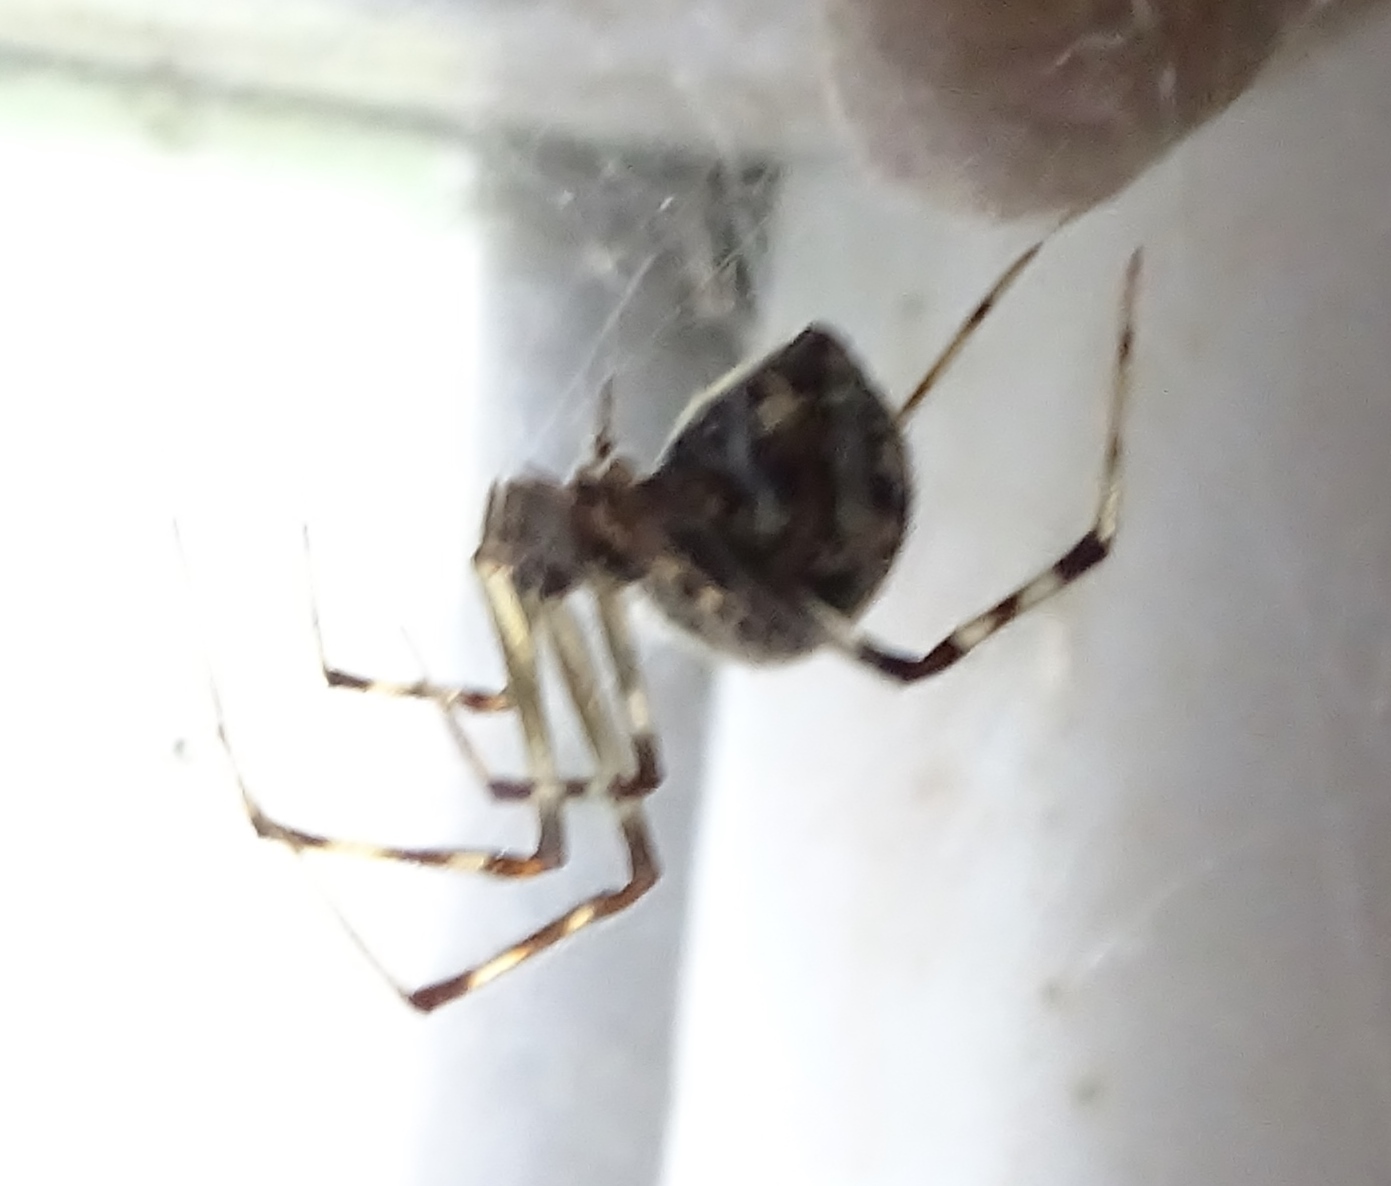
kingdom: Animalia
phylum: Arthropoda
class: Arachnida
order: Araneae
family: Theridiidae
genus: Parasteatoda
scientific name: Parasteatoda tepidariorum
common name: Common house spider
